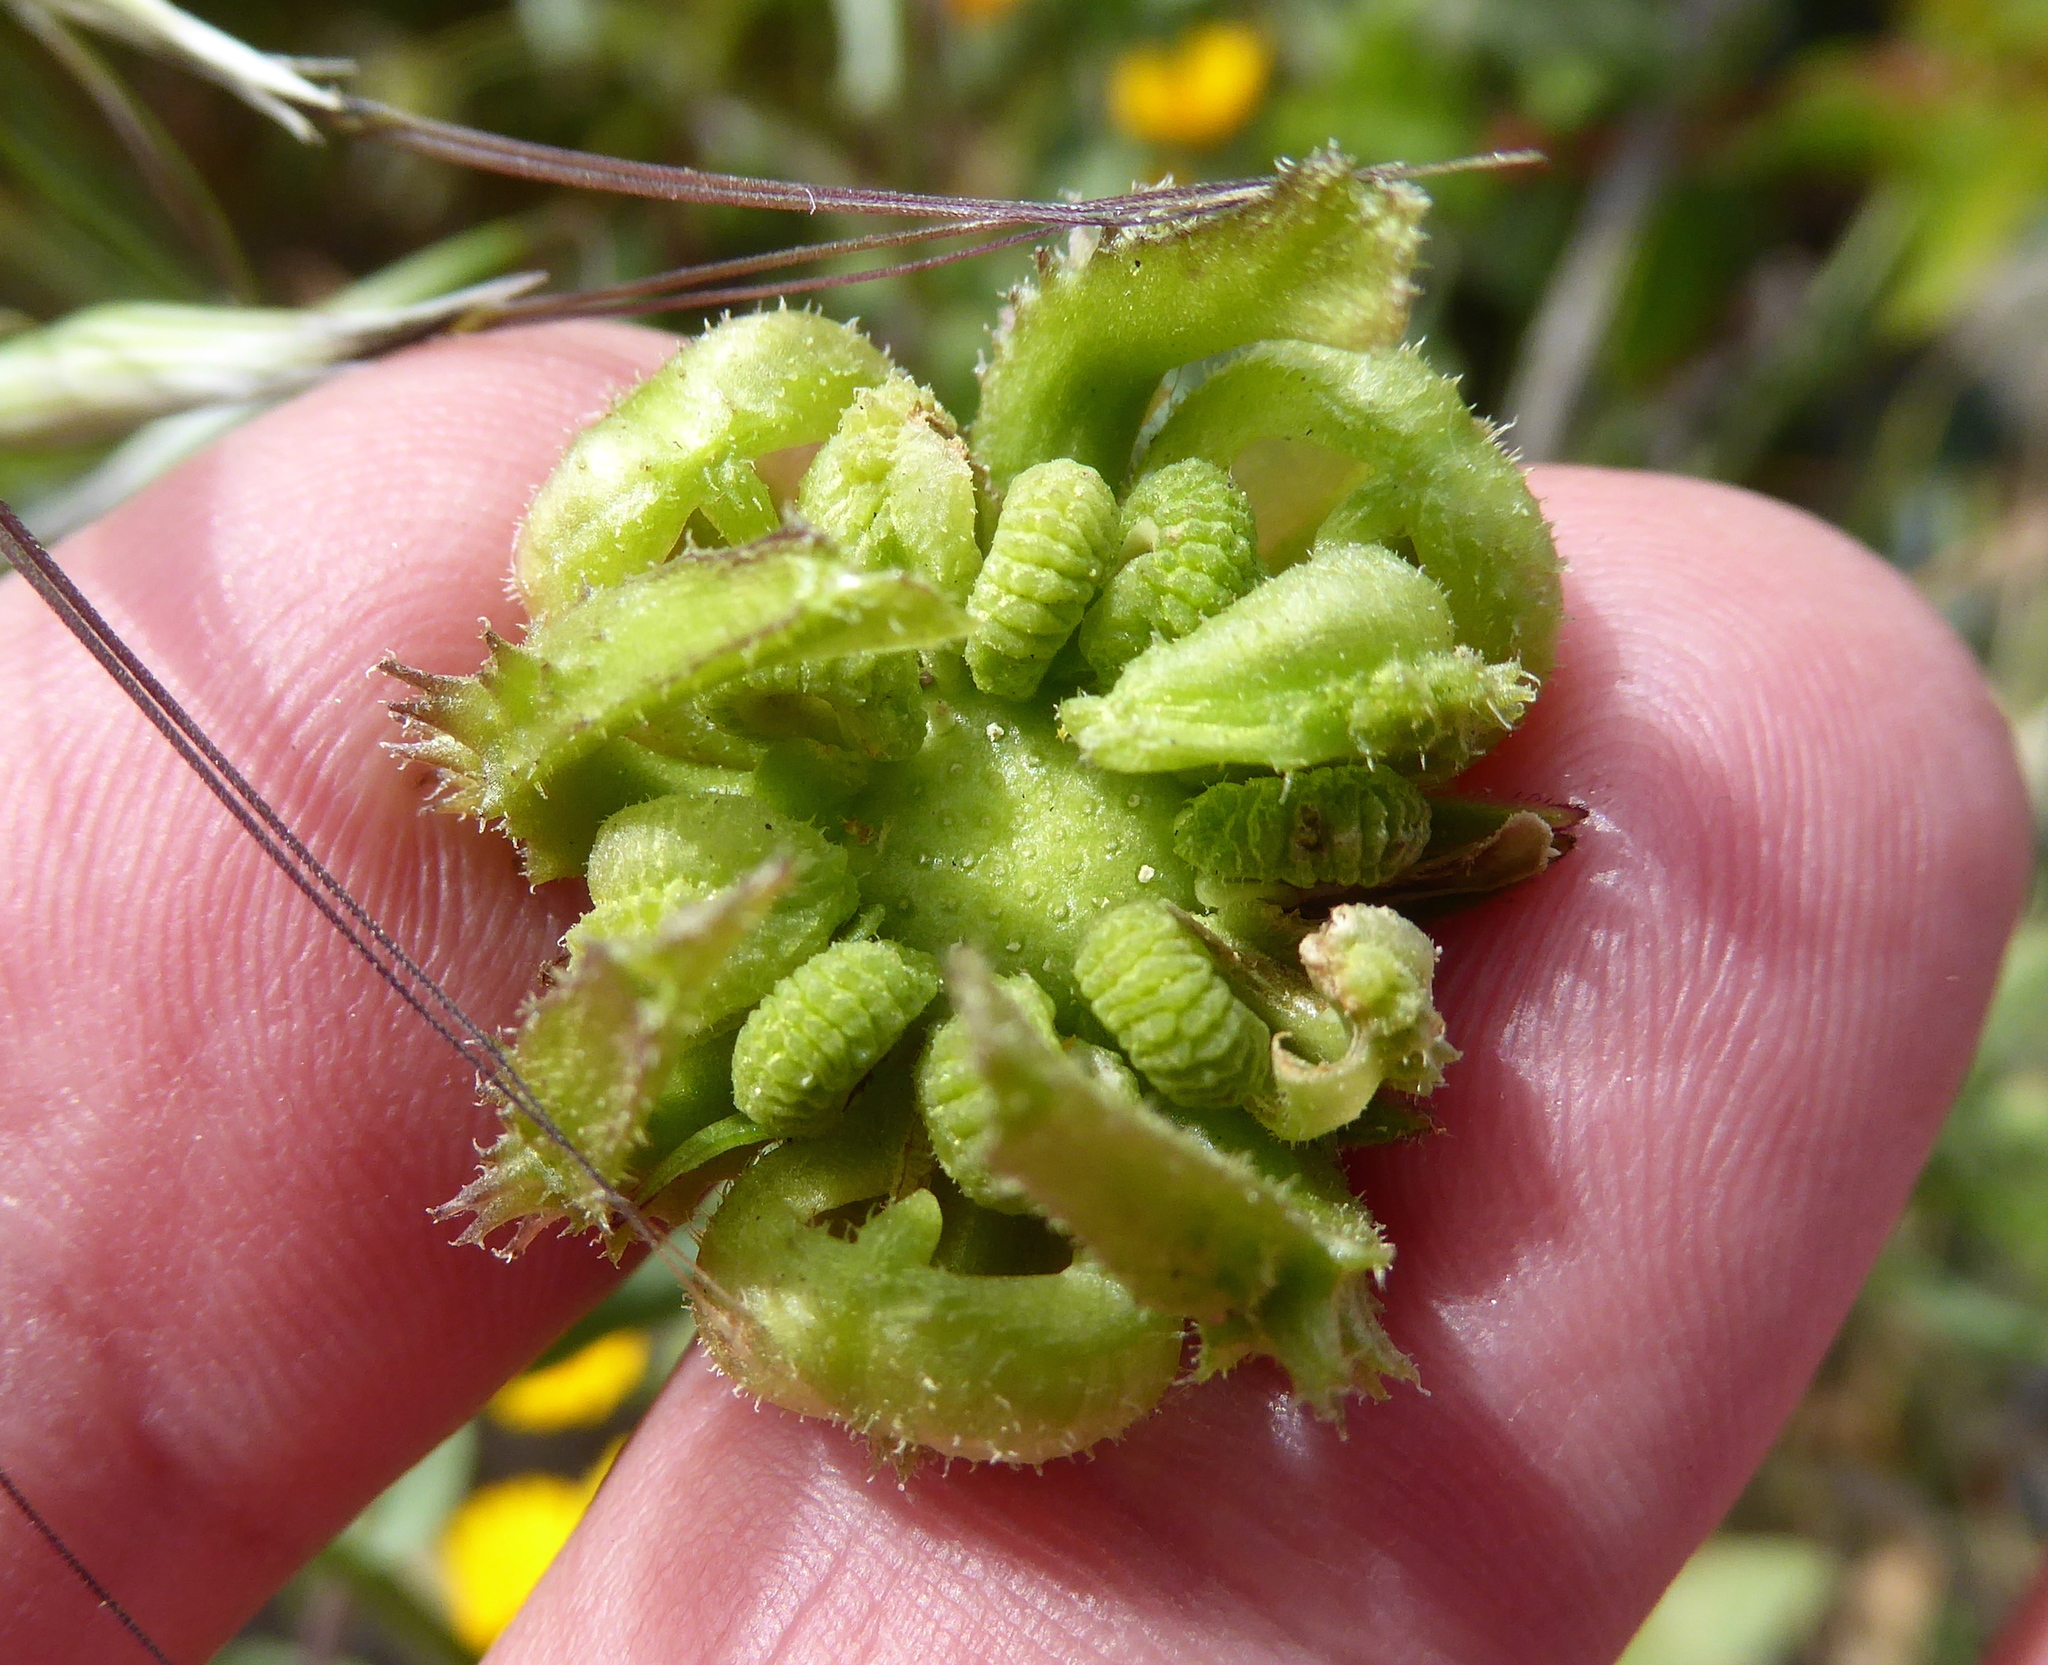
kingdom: Plantae
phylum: Tracheophyta
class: Magnoliopsida
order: Asterales
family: Asteraceae
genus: Calendula
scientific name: Calendula officinalis
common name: Pot marigold
